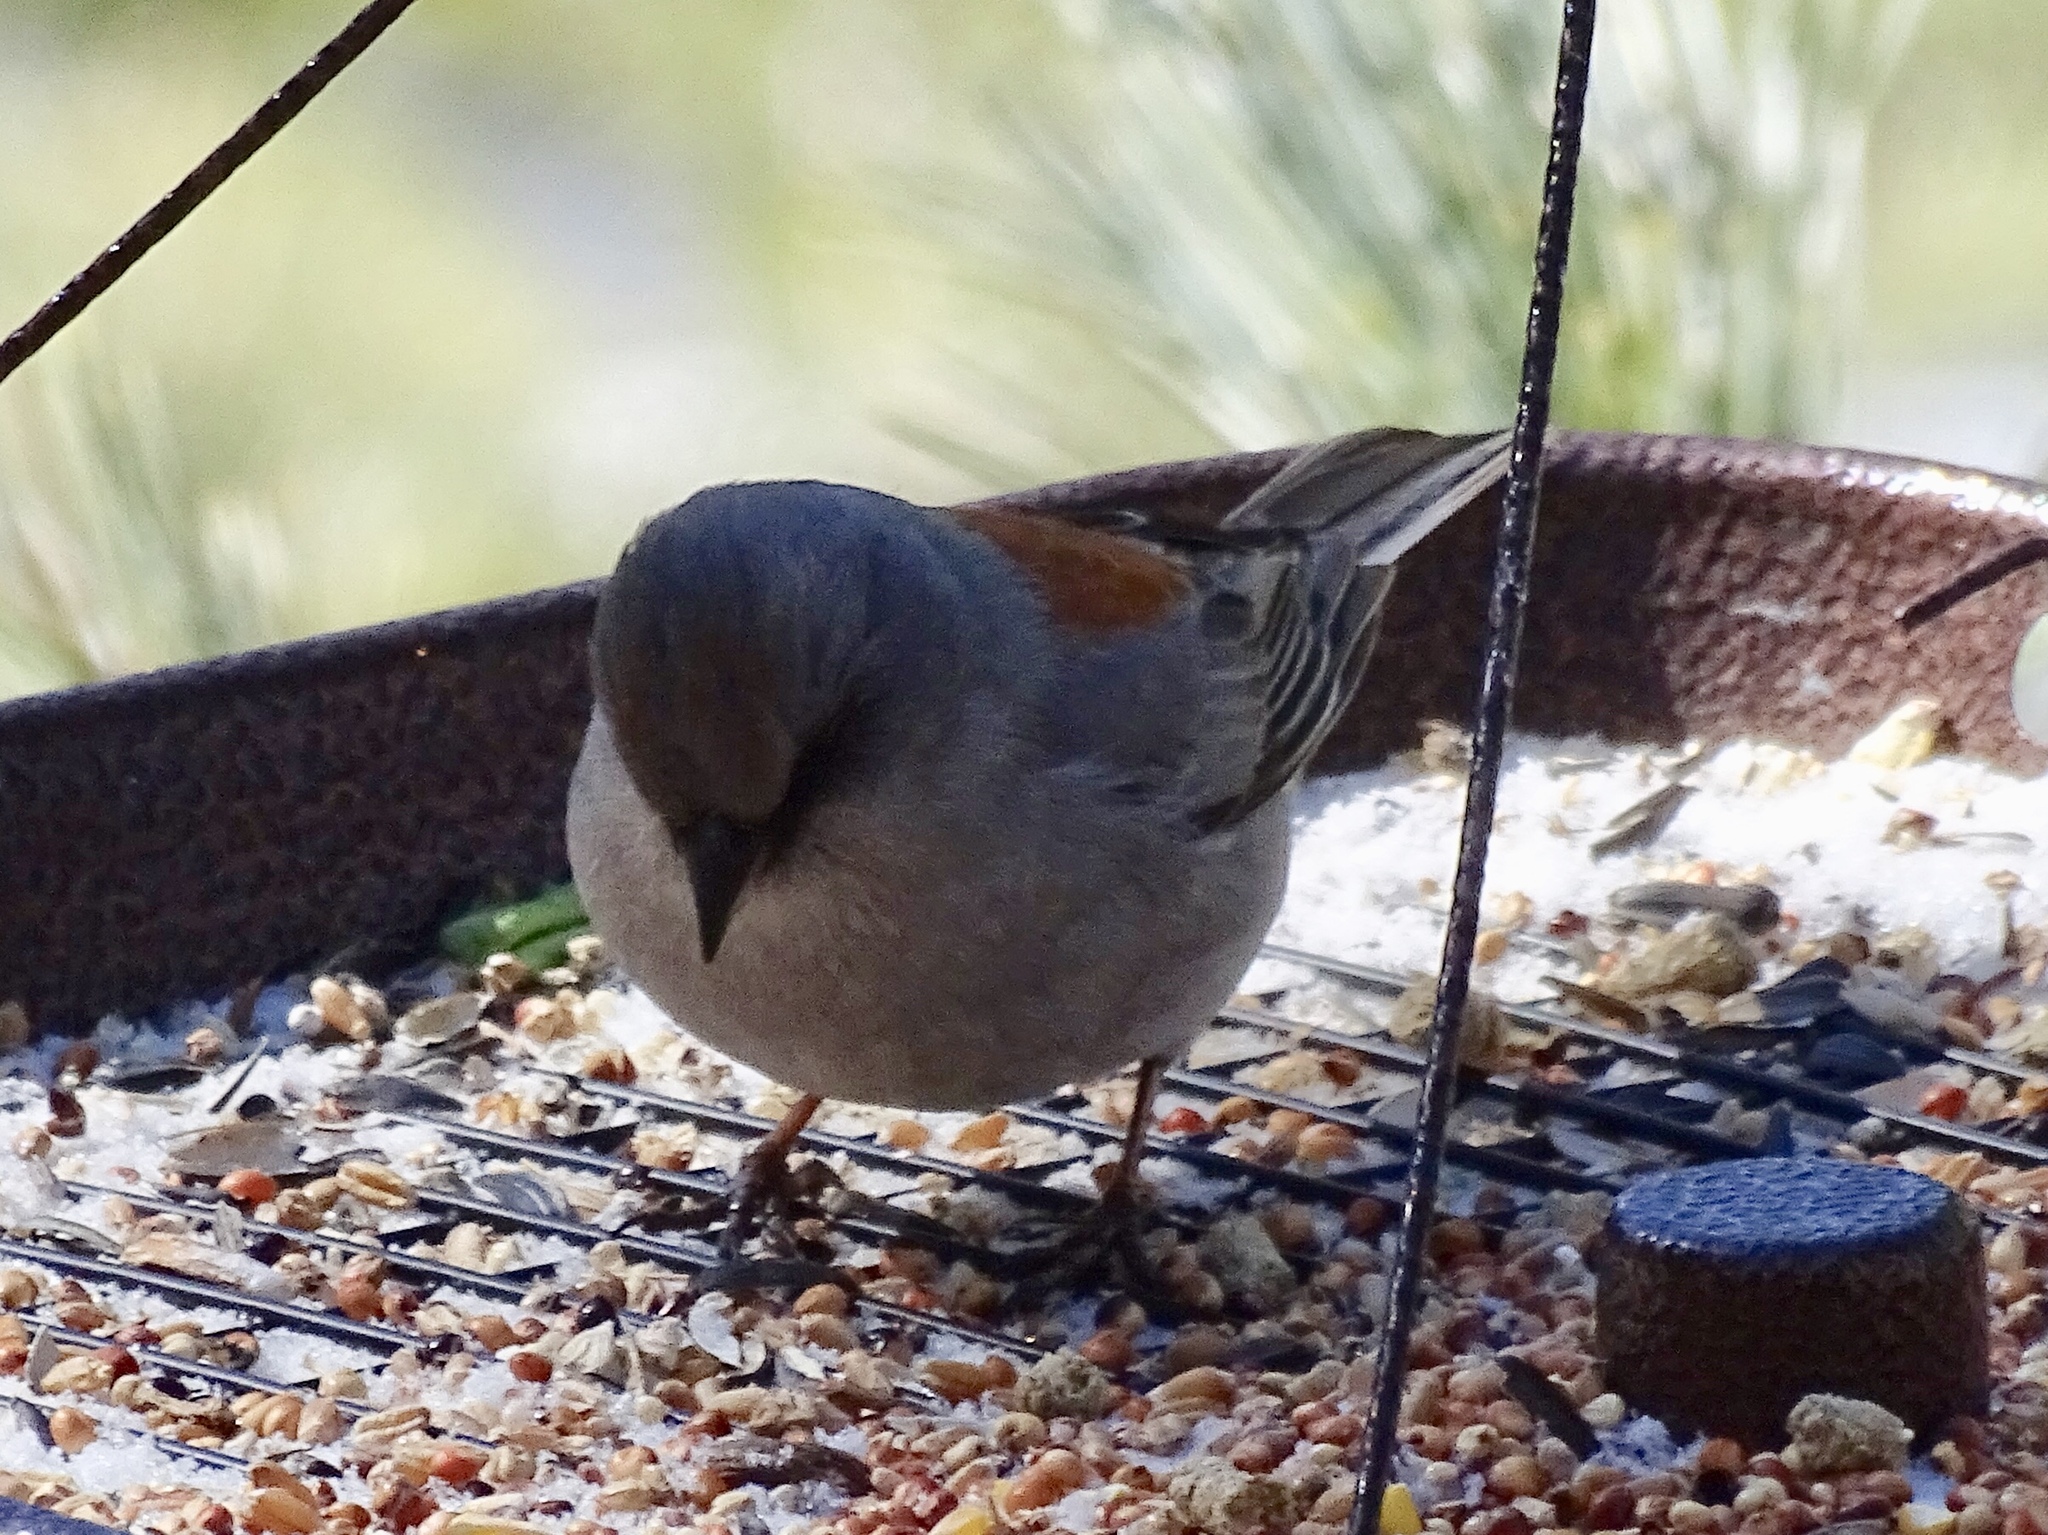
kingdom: Animalia
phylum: Chordata
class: Aves
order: Passeriformes
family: Passerellidae
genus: Junco
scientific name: Junco hyemalis
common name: Dark-eyed junco
